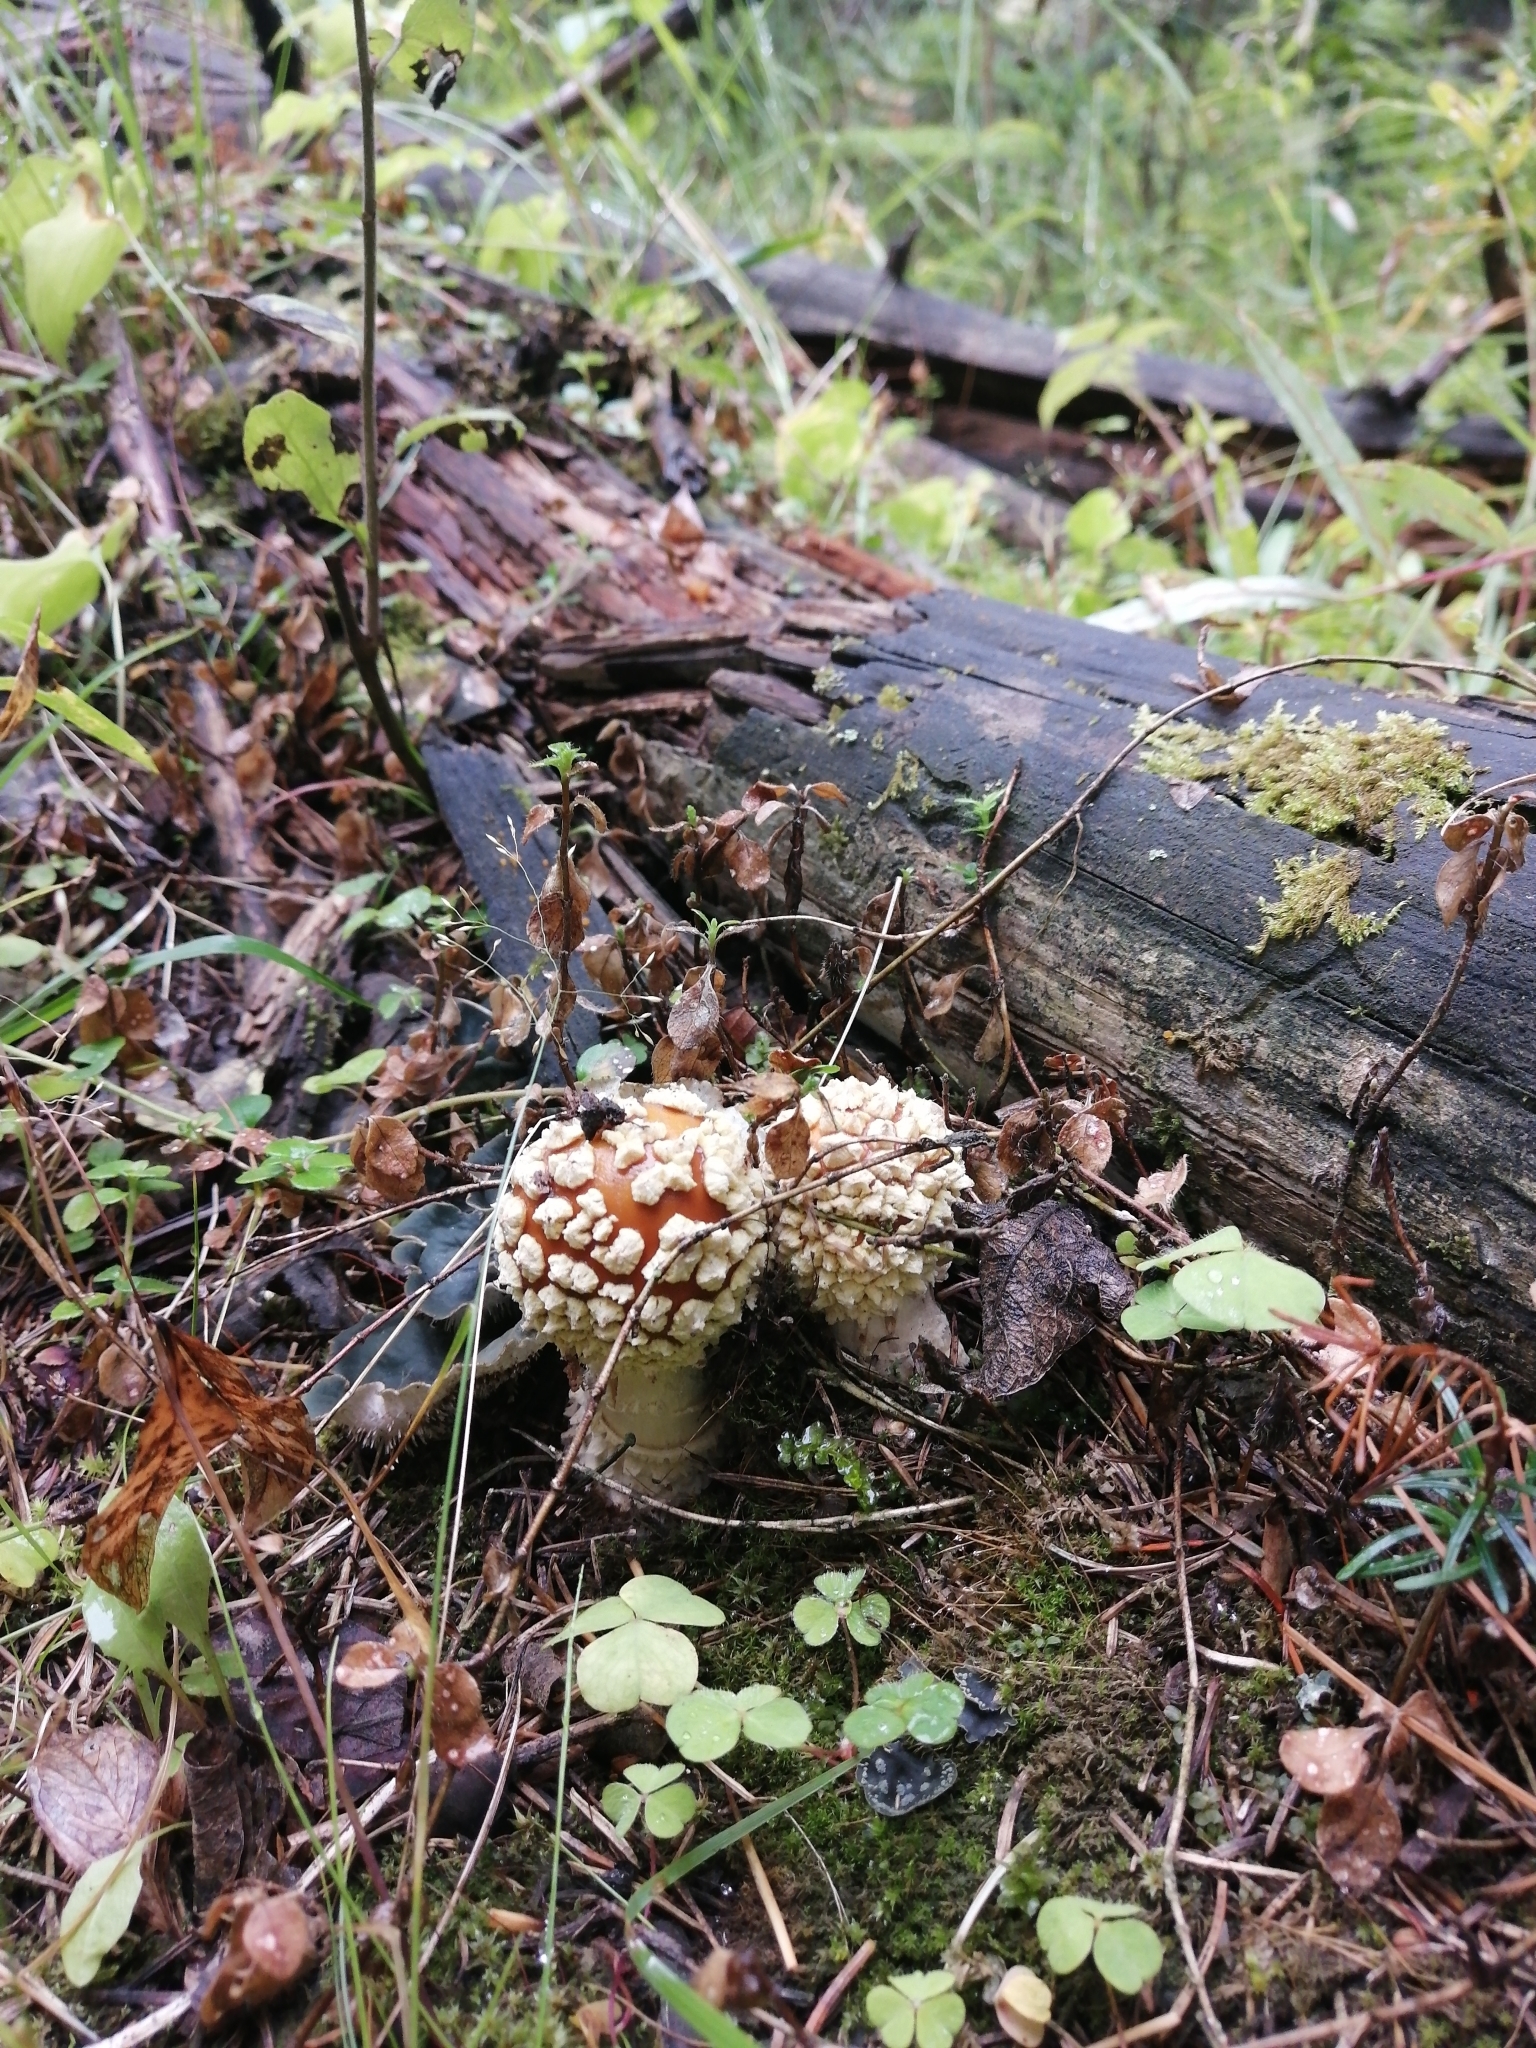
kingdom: Fungi
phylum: Basidiomycota
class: Agaricomycetes
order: Agaricales
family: Amanitaceae
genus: Amanita
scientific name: Amanita regalis
